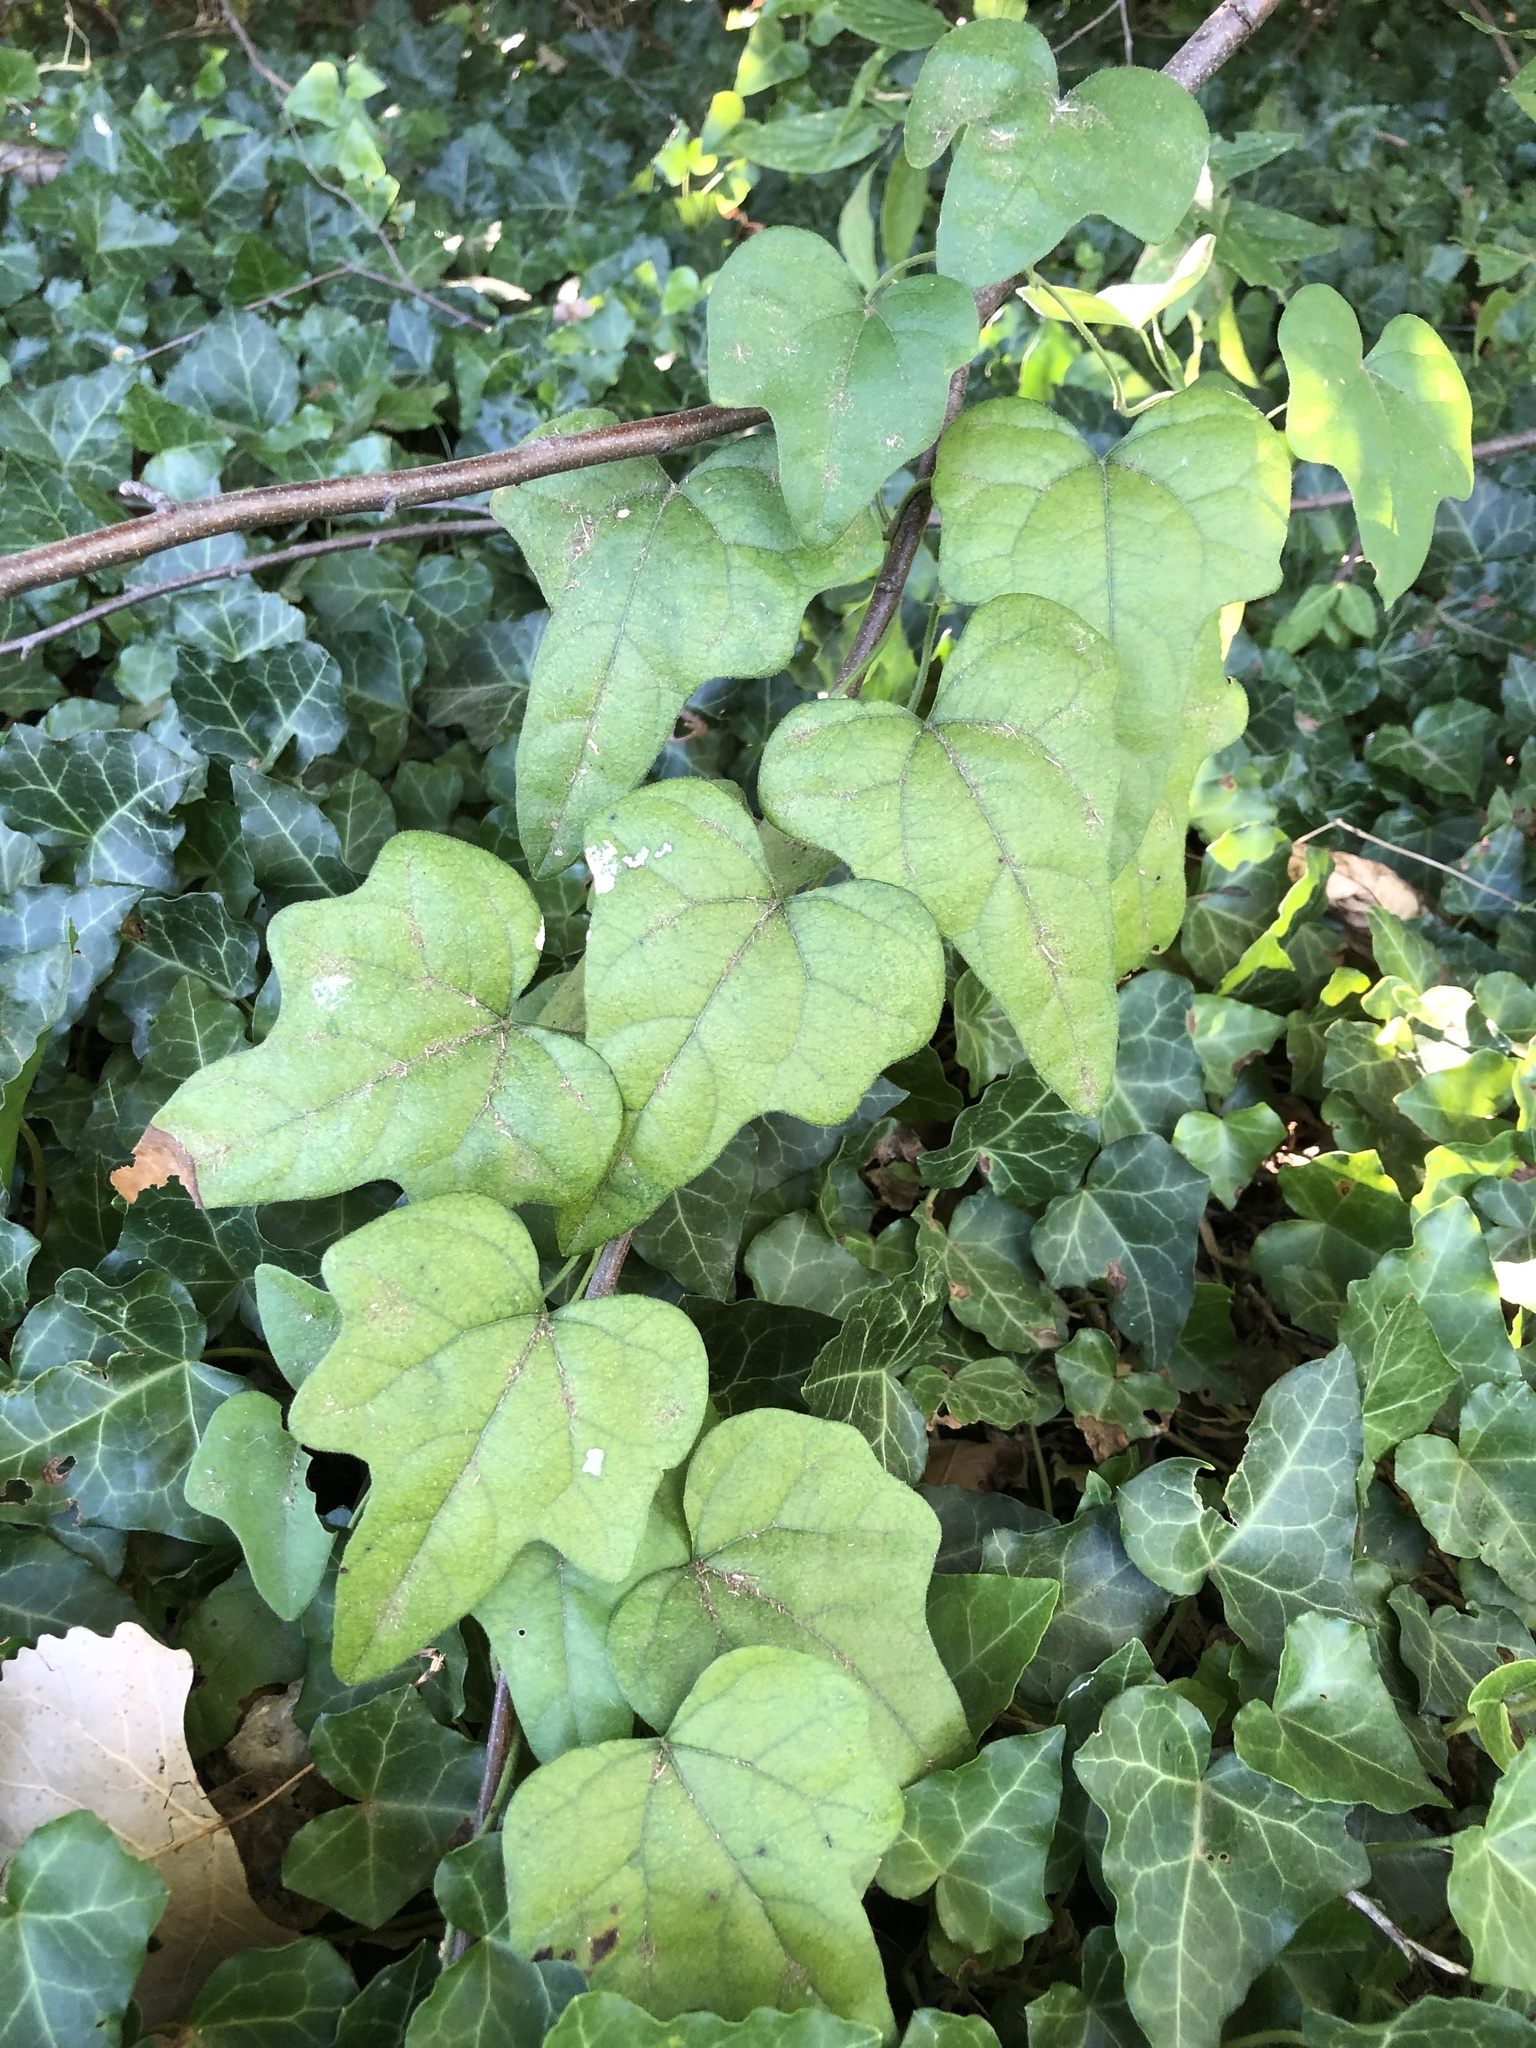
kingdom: Plantae
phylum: Tracheophyta
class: Magnoliopsida
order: Ranunculales
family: Menispermaceae
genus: Cocculus
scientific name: Cocculus carolinus
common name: Carolina moonseed
